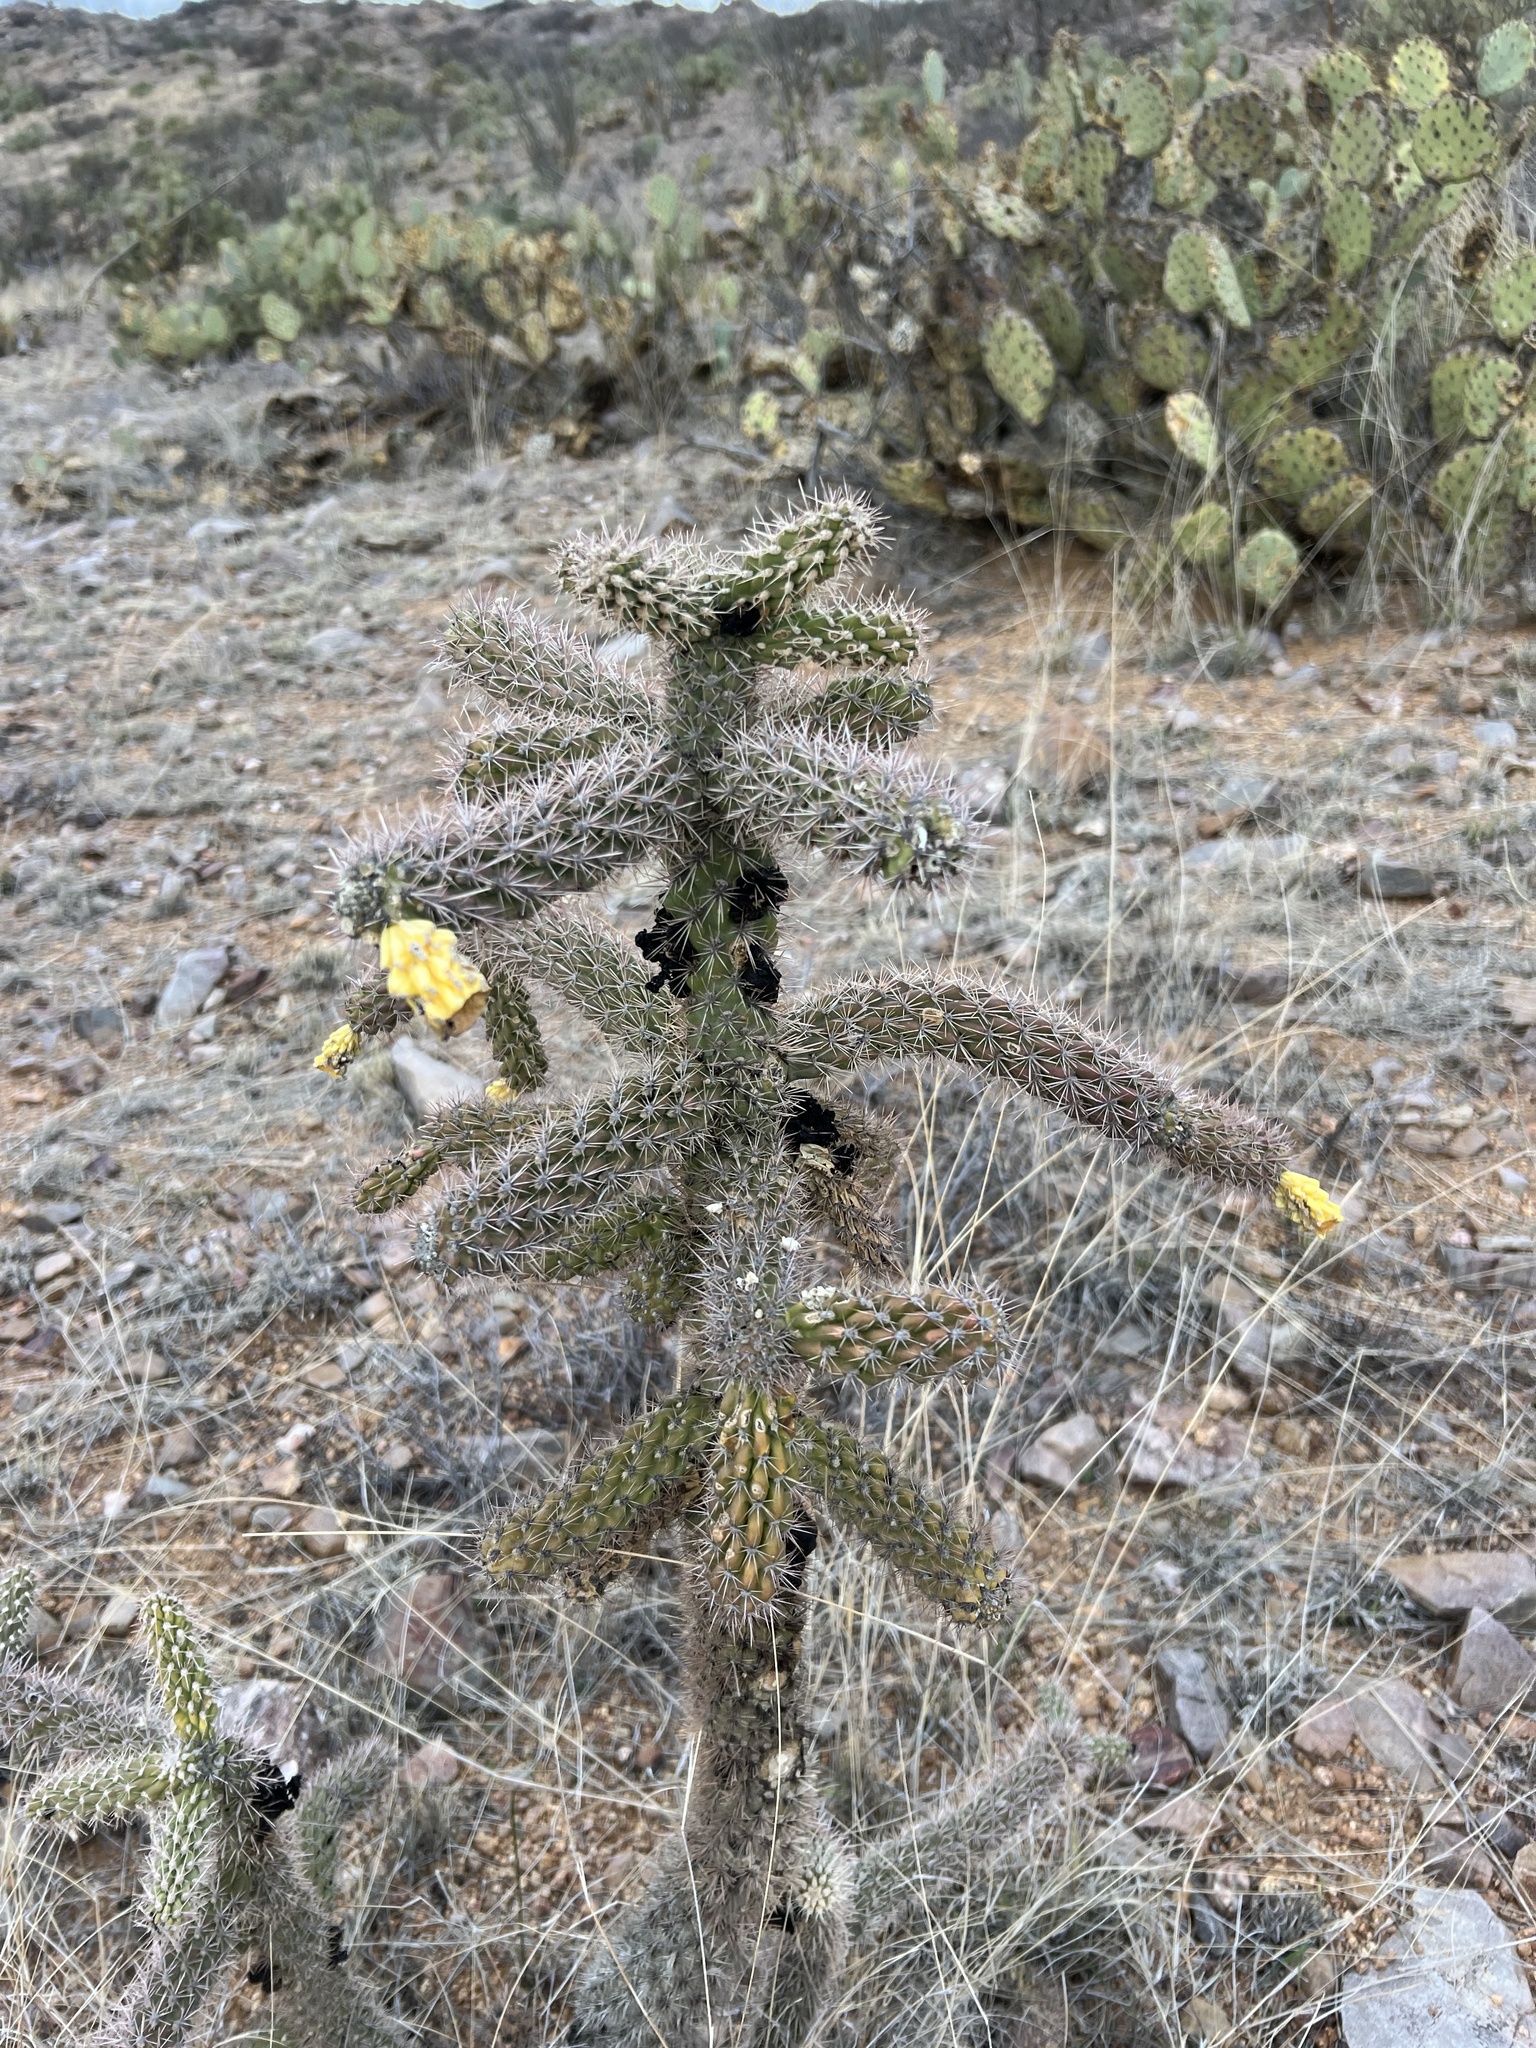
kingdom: Plantae
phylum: Tracheophyta
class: Magnoliopsida
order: Caryophyllales
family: Cactaceae
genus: Cylindropuntia
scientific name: Cylindropuntia imbricata
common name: Candelabrum cactus
